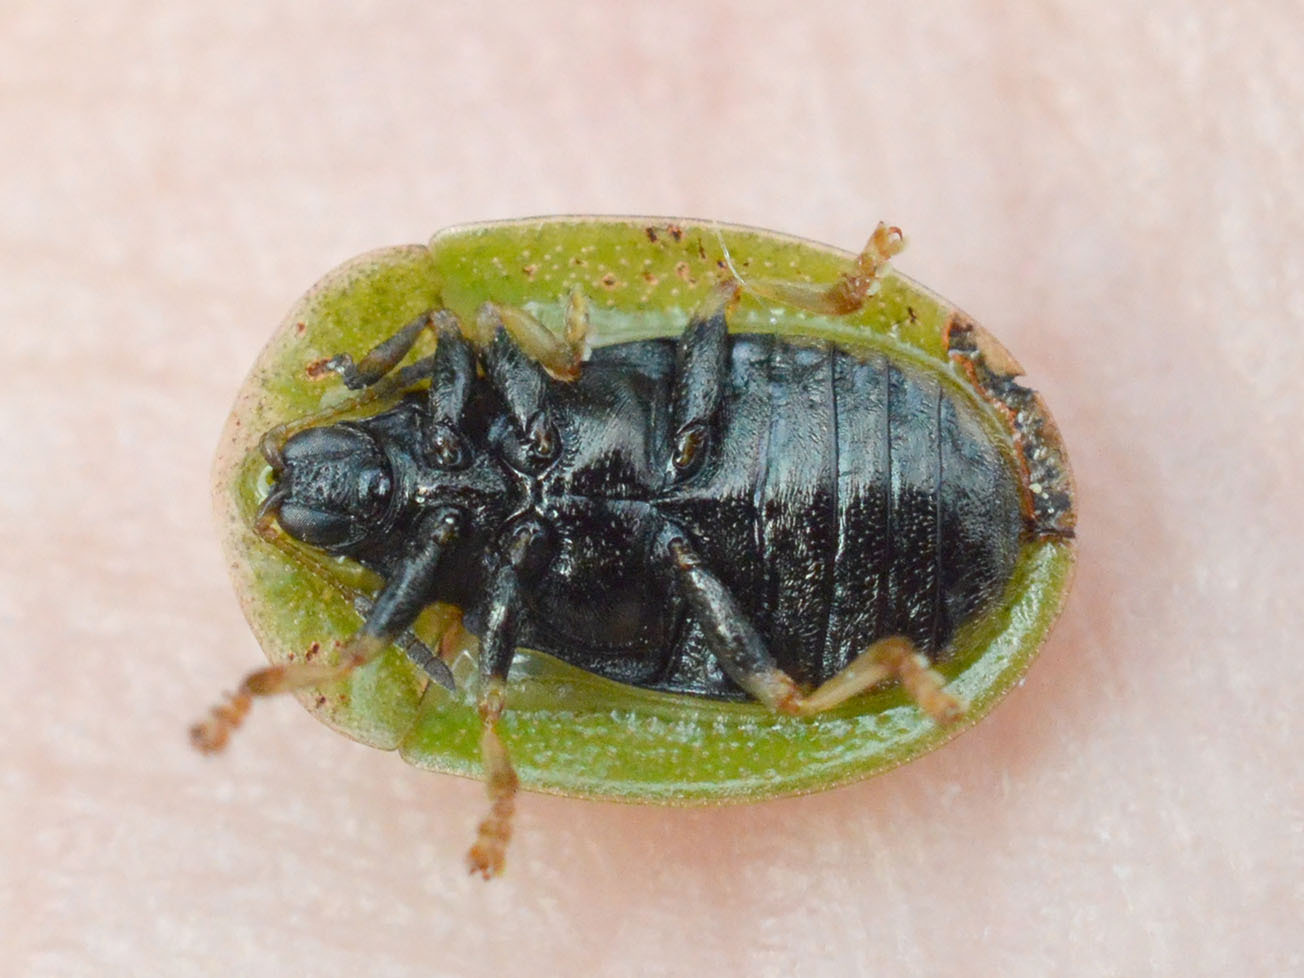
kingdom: Animalia
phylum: Arthropoda
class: Insecta
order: Coleoptera
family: Chrysomelidae
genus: Cassida
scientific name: Cassida rubiginosa
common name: Thistle tortoise beetle
